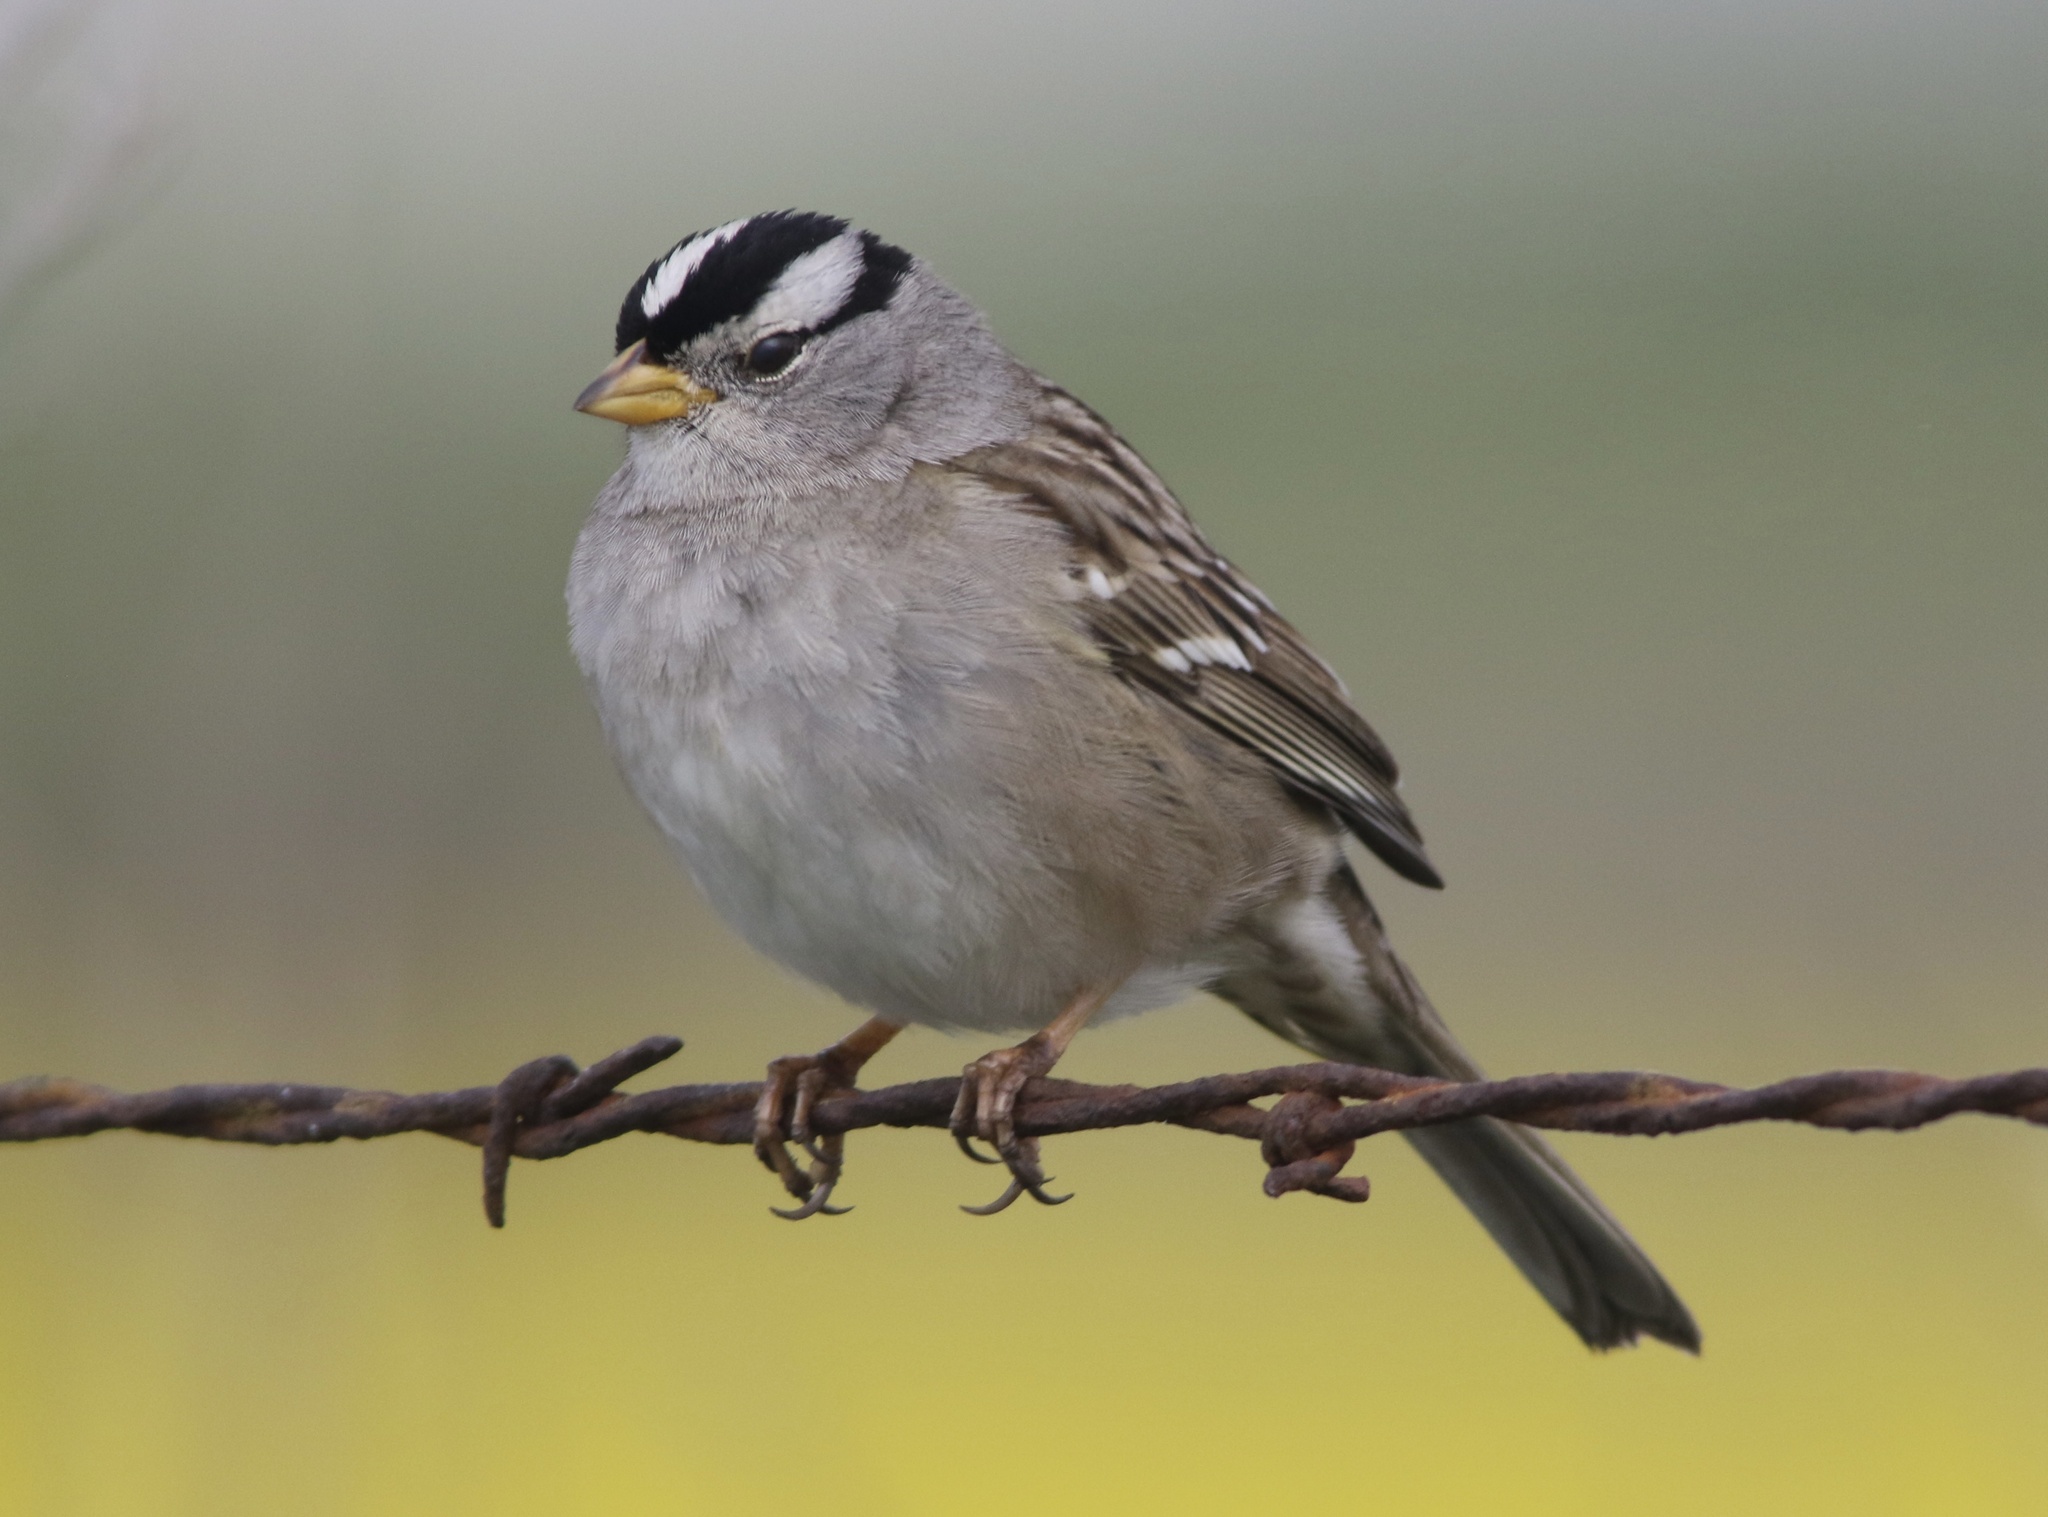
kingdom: Animalia
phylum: Chordata
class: Aves
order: Passeriformes
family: Passerellidae
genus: Zonotrichia
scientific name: Zonotrichia leucophrys
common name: White-crowned sparrow
